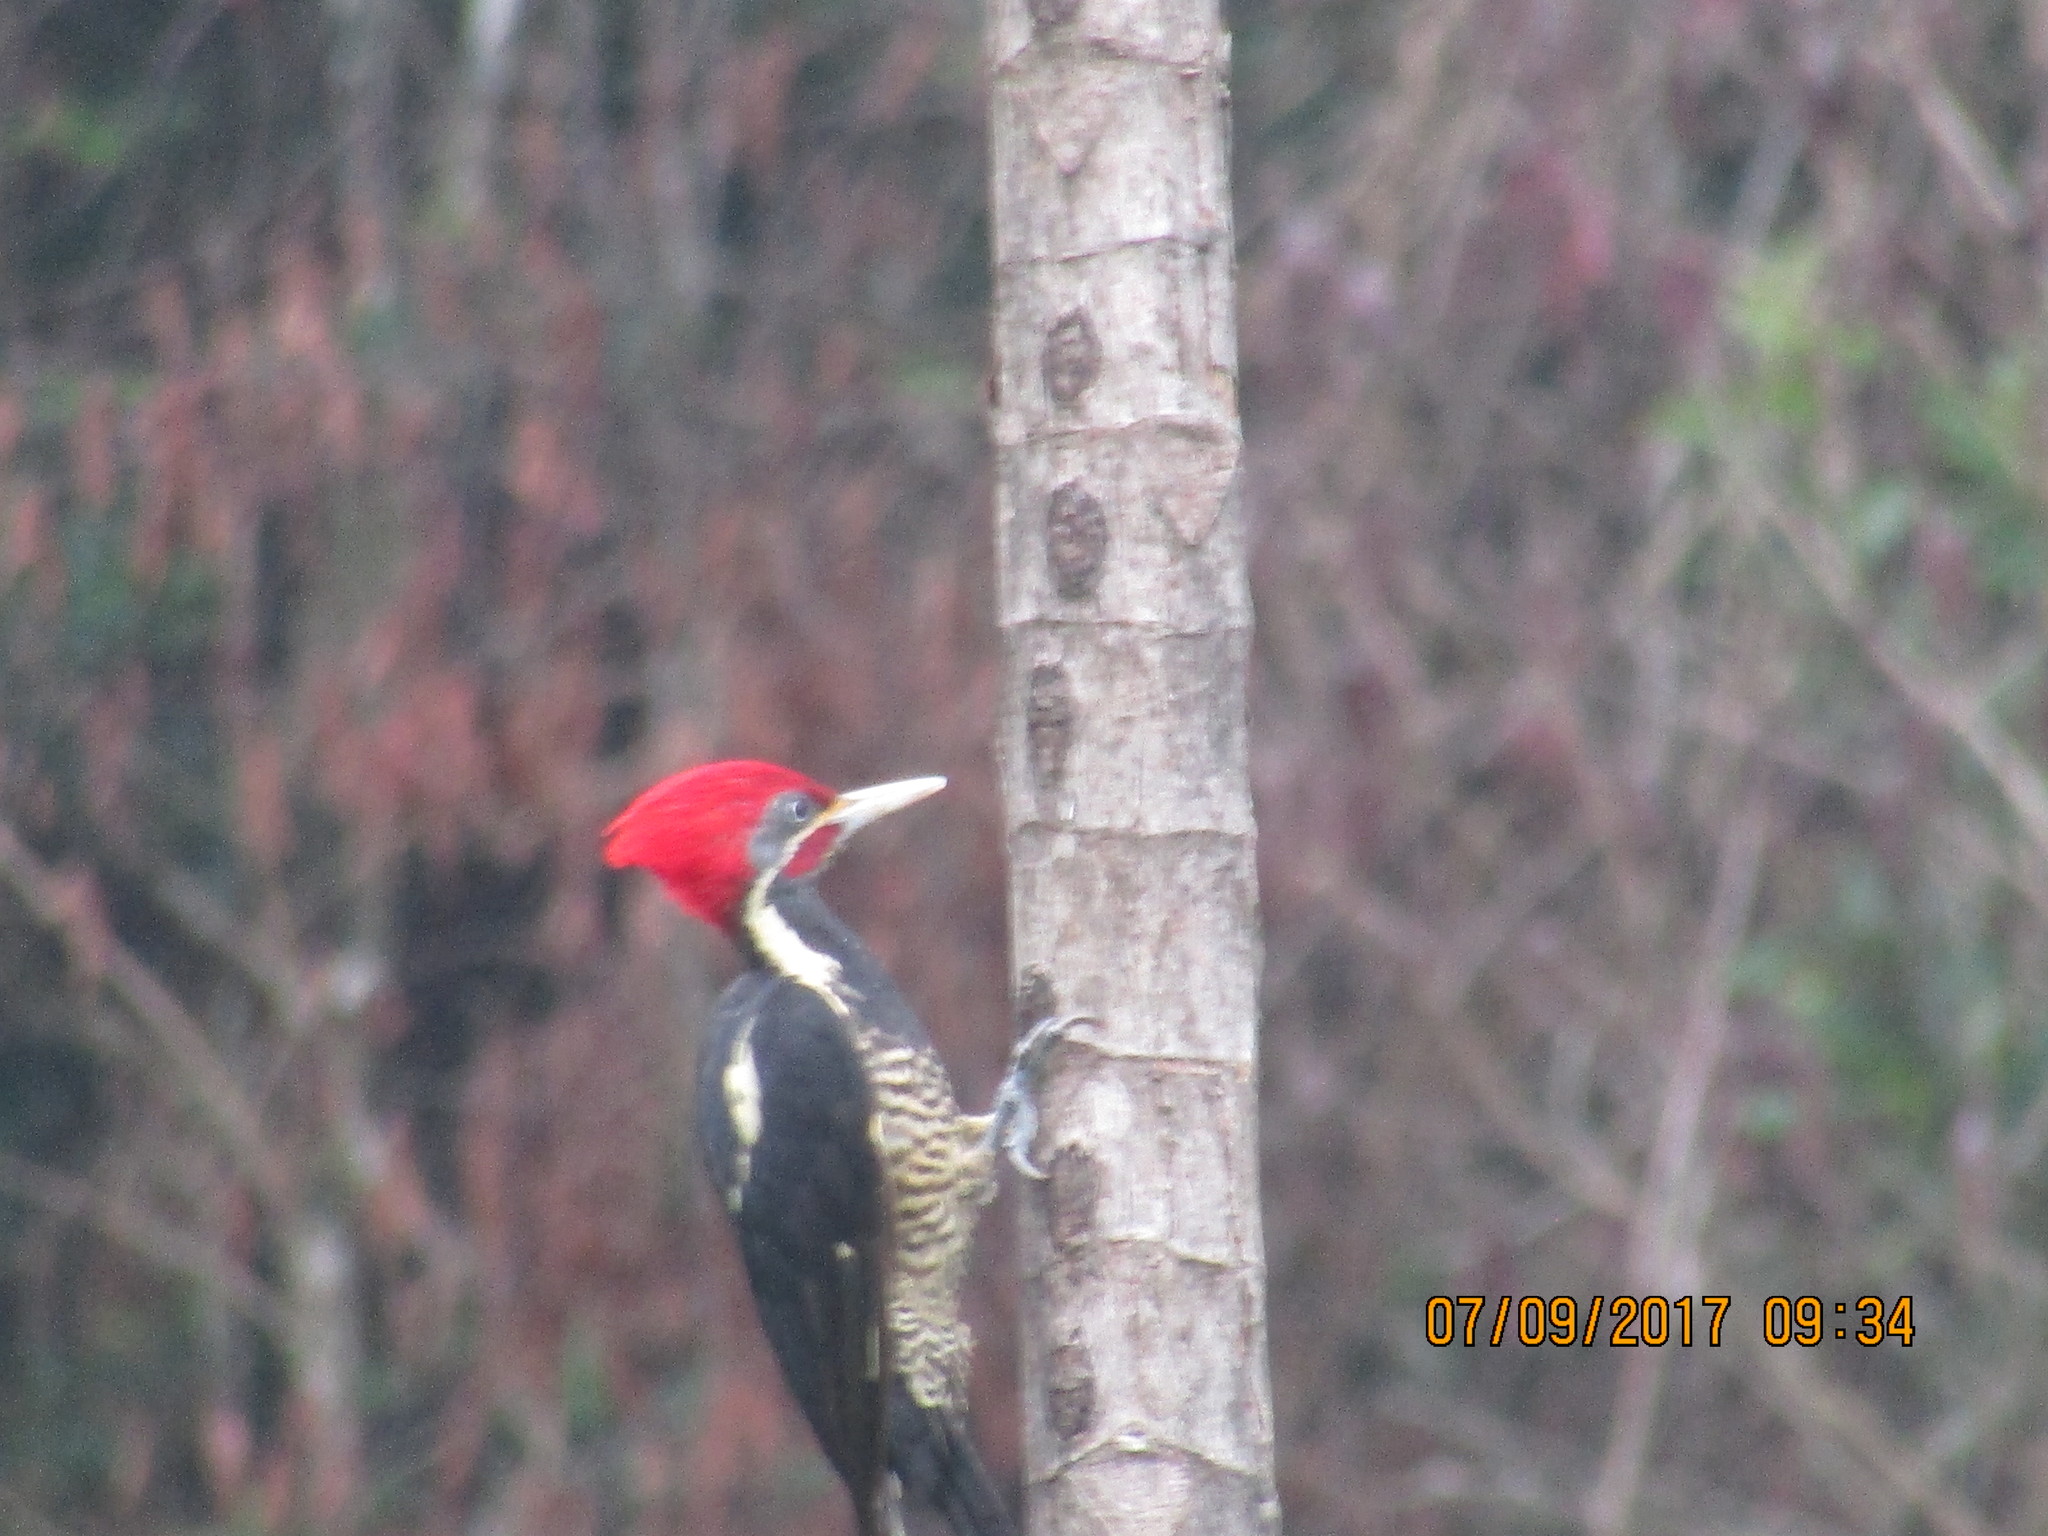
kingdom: Animalia
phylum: Chordata
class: Aves
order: Piciformes
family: Picidae
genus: Dryocopus
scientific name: Dryocopus lineatus
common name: Lineated woodpecker
